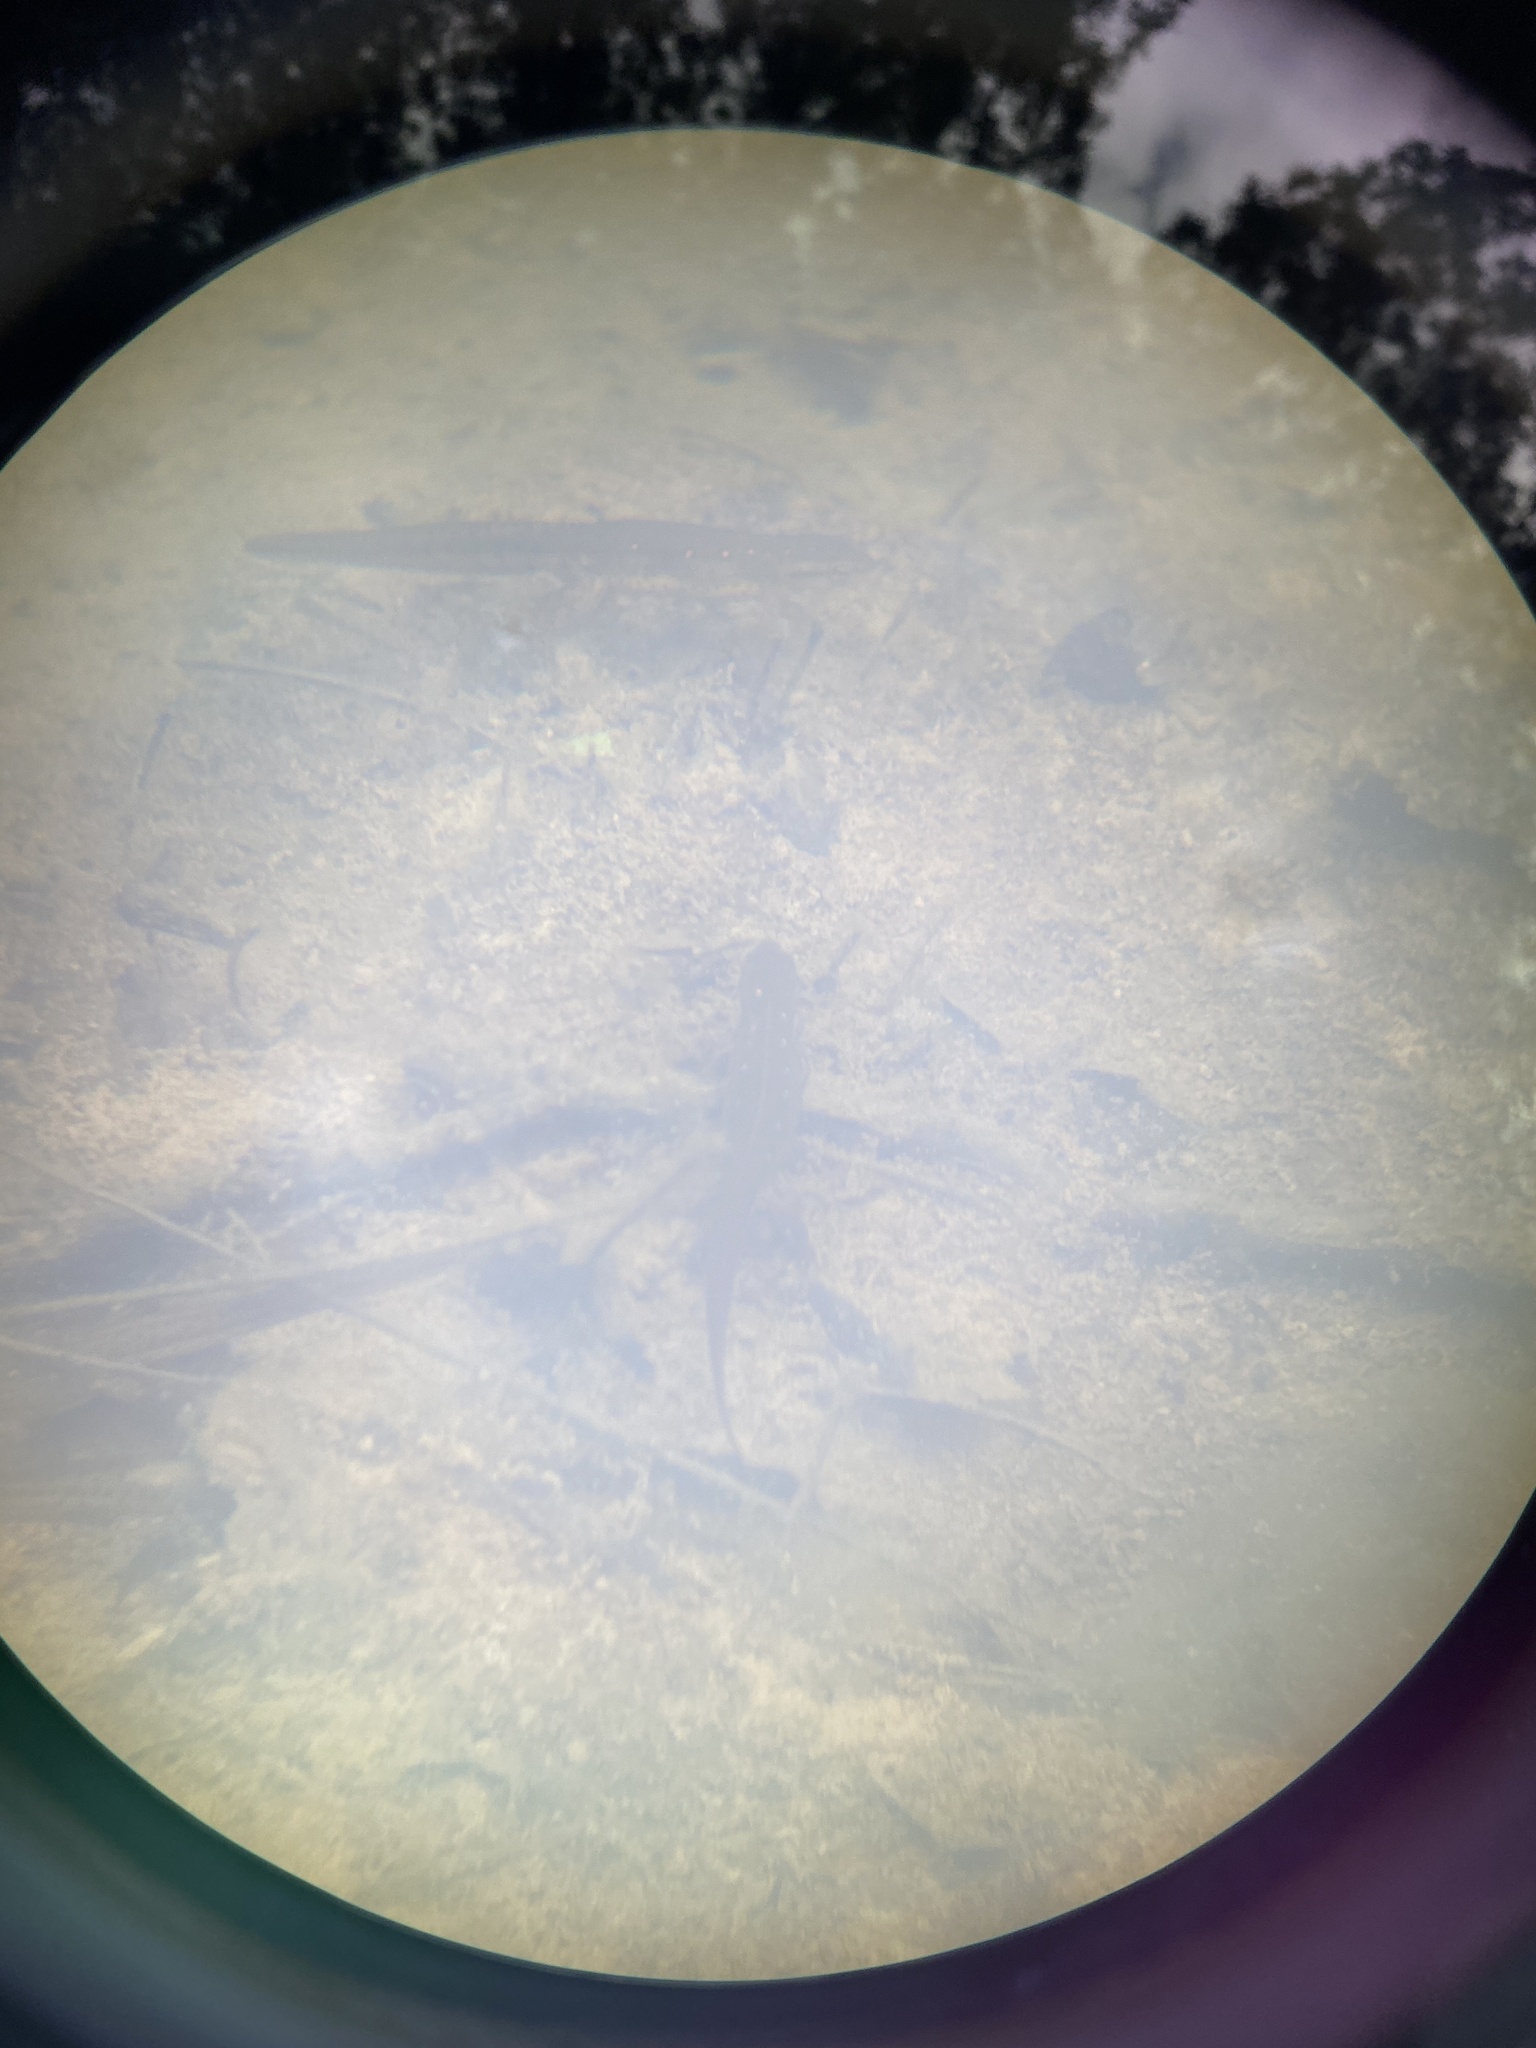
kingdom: Animalia
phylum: Chordata
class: Amphibia
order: Caudata
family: Salamandridae
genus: Notophthalmus
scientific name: Notophthalmus viridescens
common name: Eastern newt
